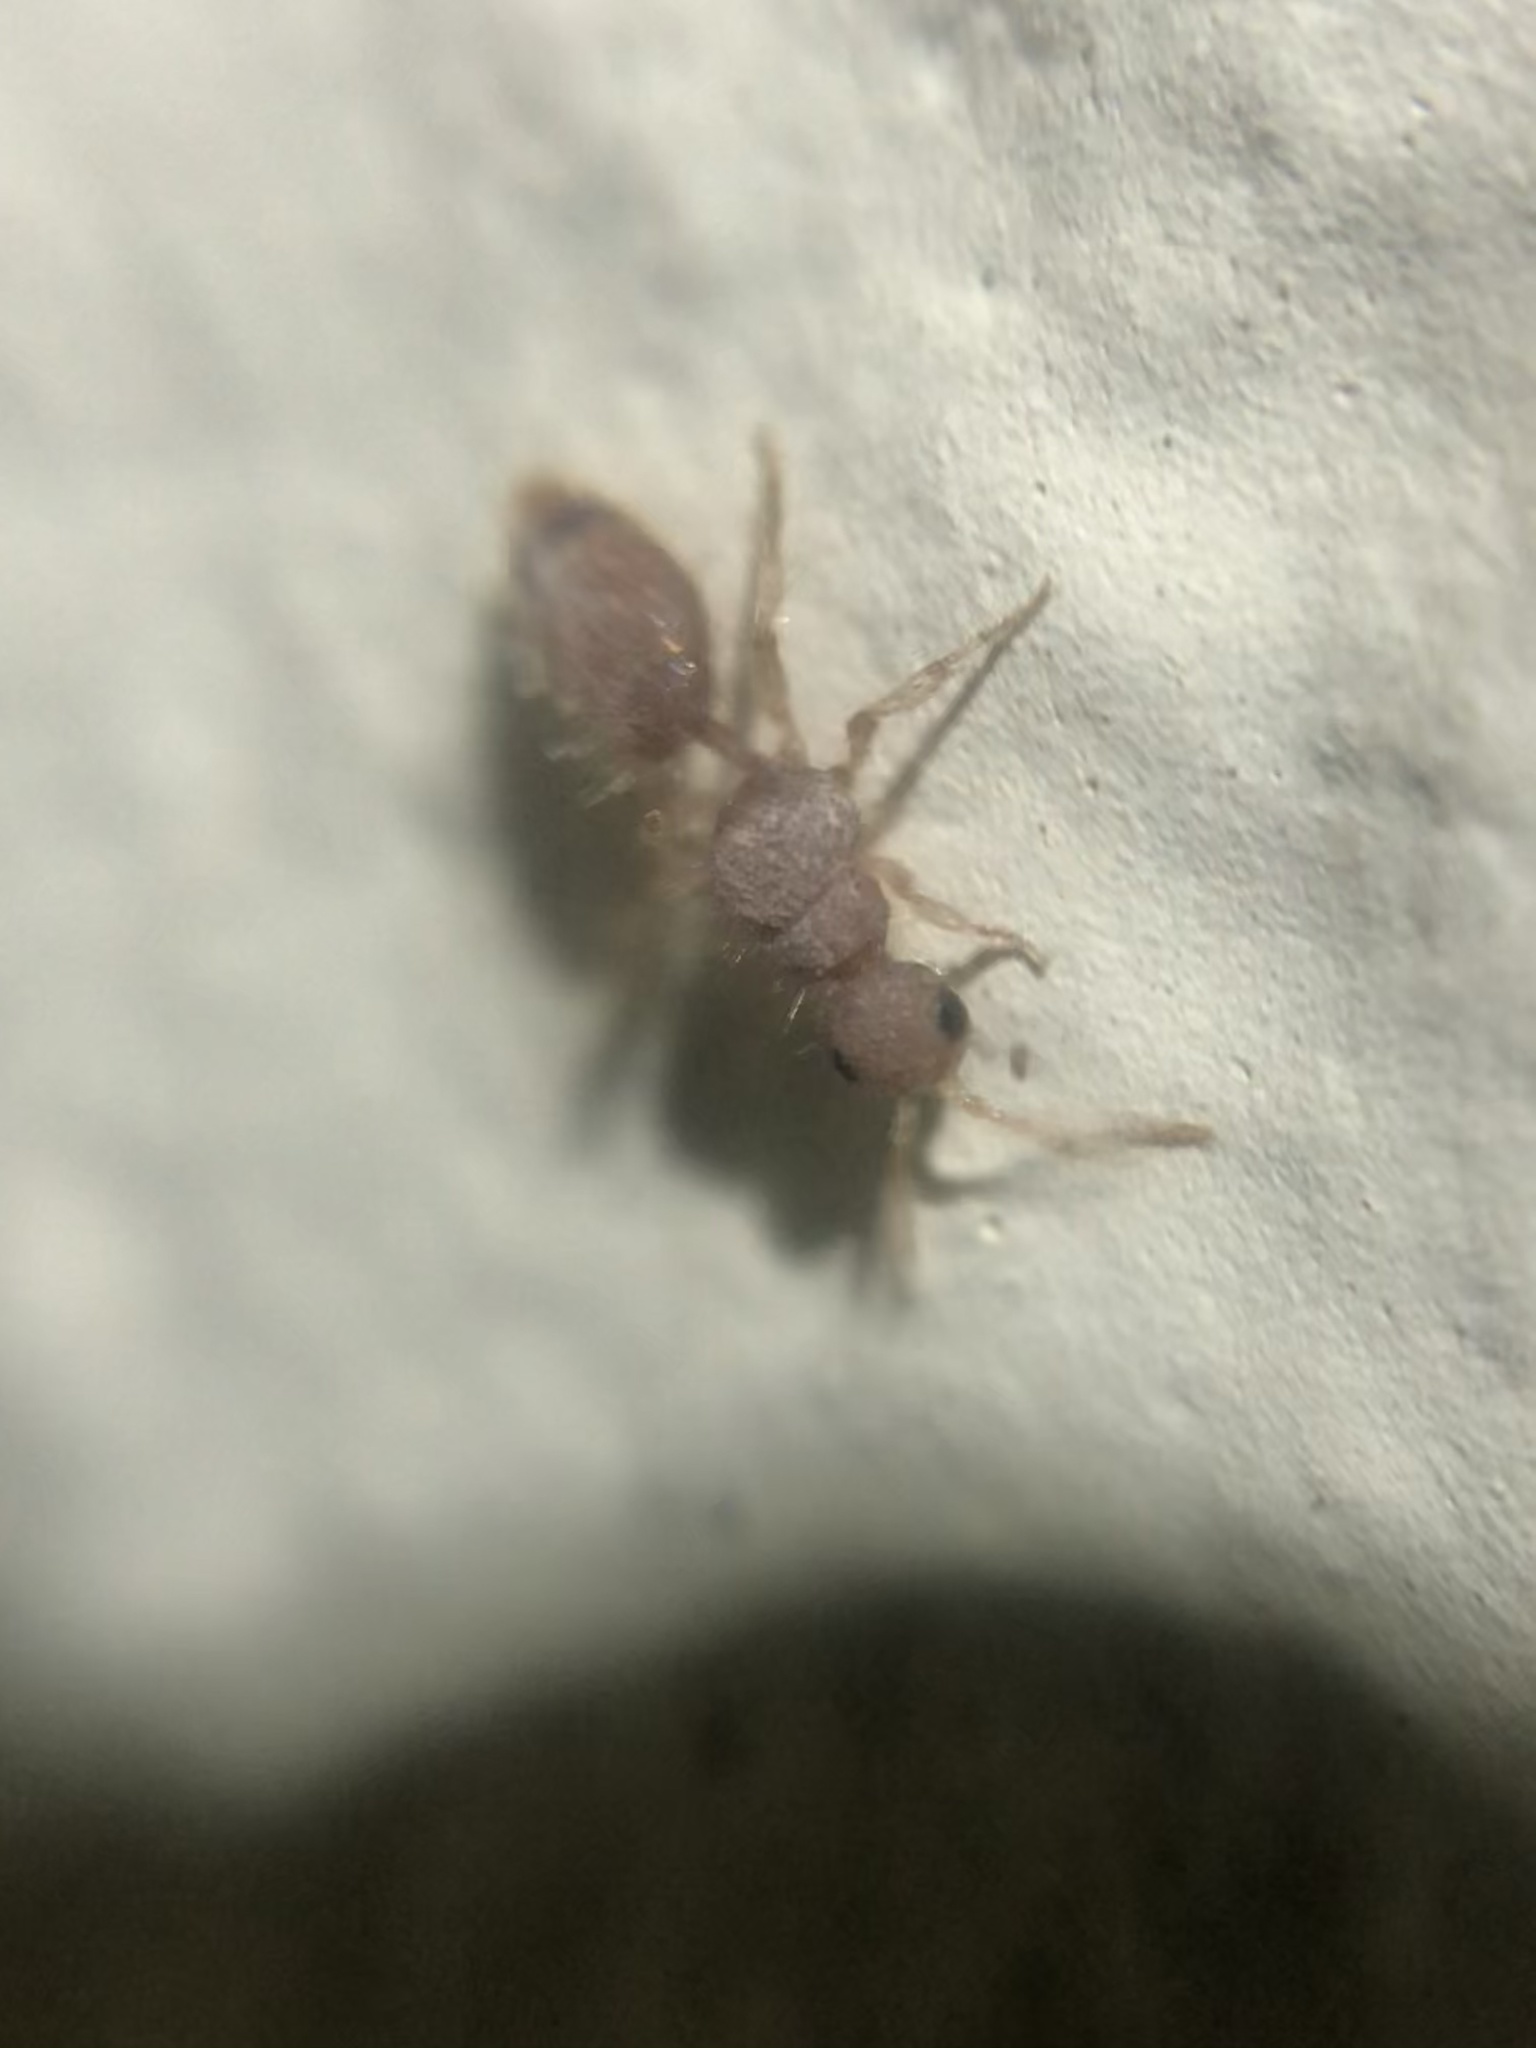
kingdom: Animalia
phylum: Arthropoda
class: Insecta
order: Hymenoptera
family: Chyphotidae
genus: Chyphotes
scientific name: Chyphotes
